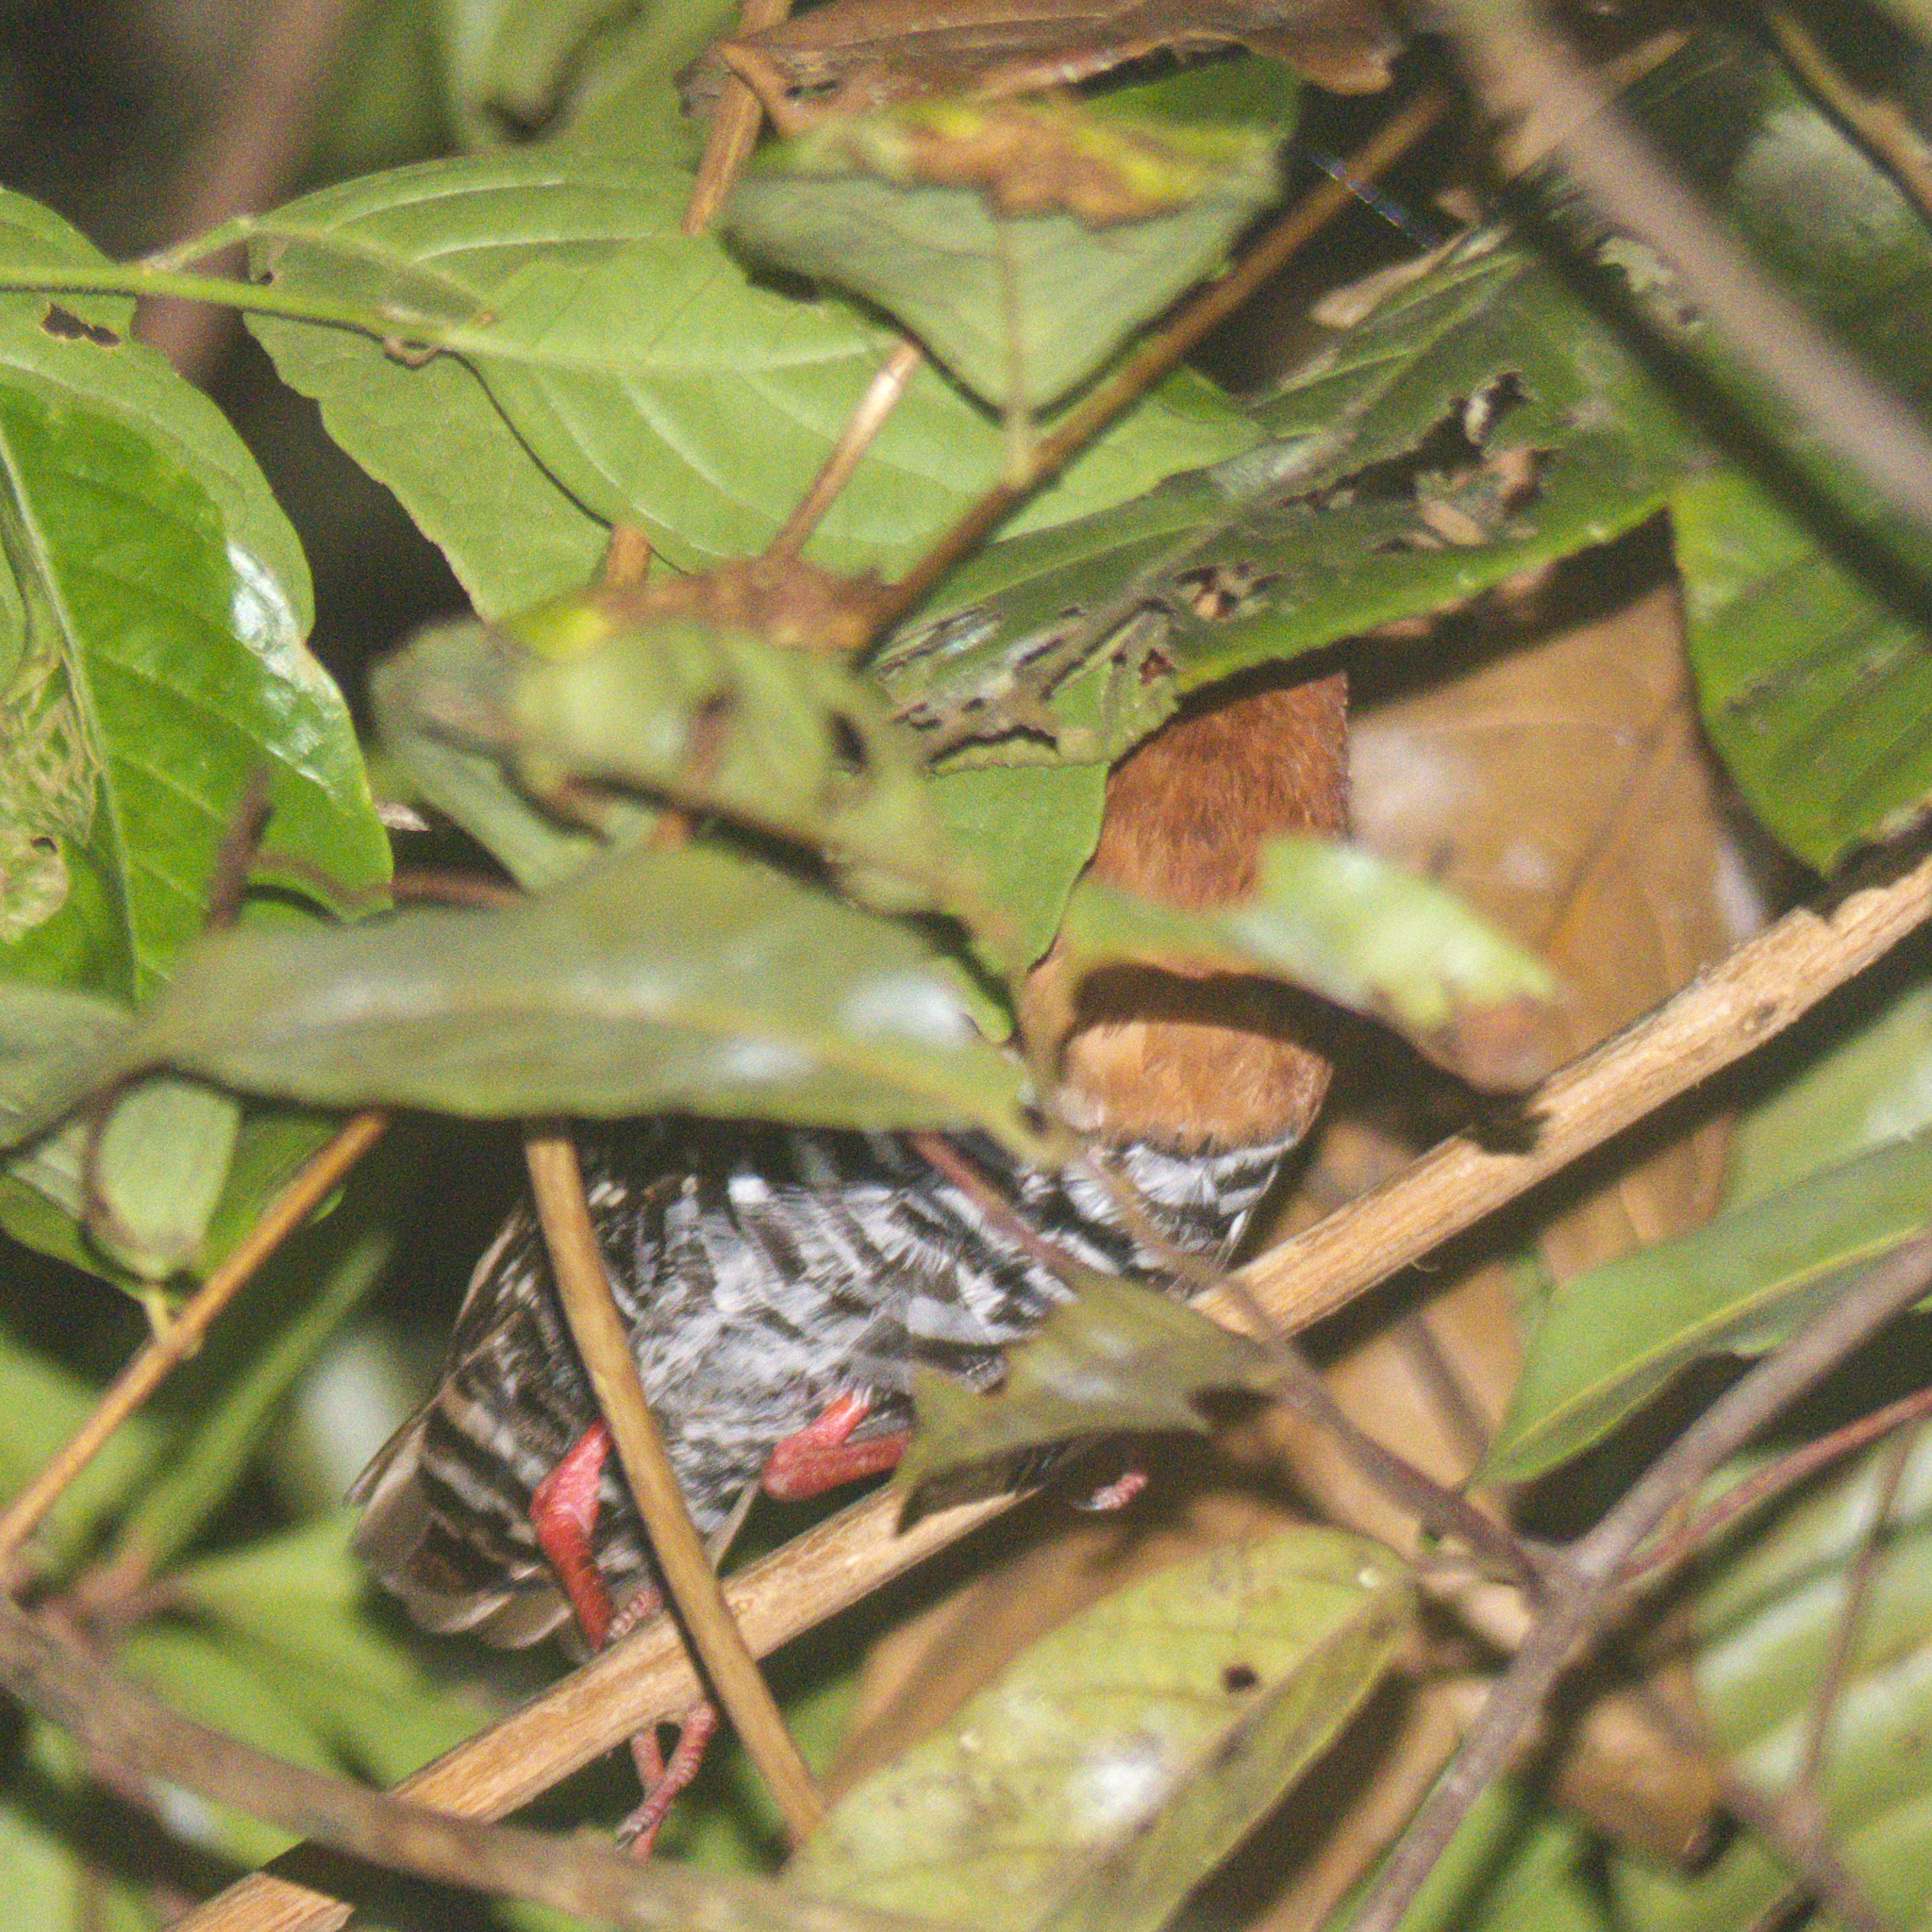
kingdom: Animalia
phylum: Chordata
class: Aves
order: Gruiformes
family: Rallidae
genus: Rallina
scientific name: Rallina fasciata
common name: Red-legged crake
